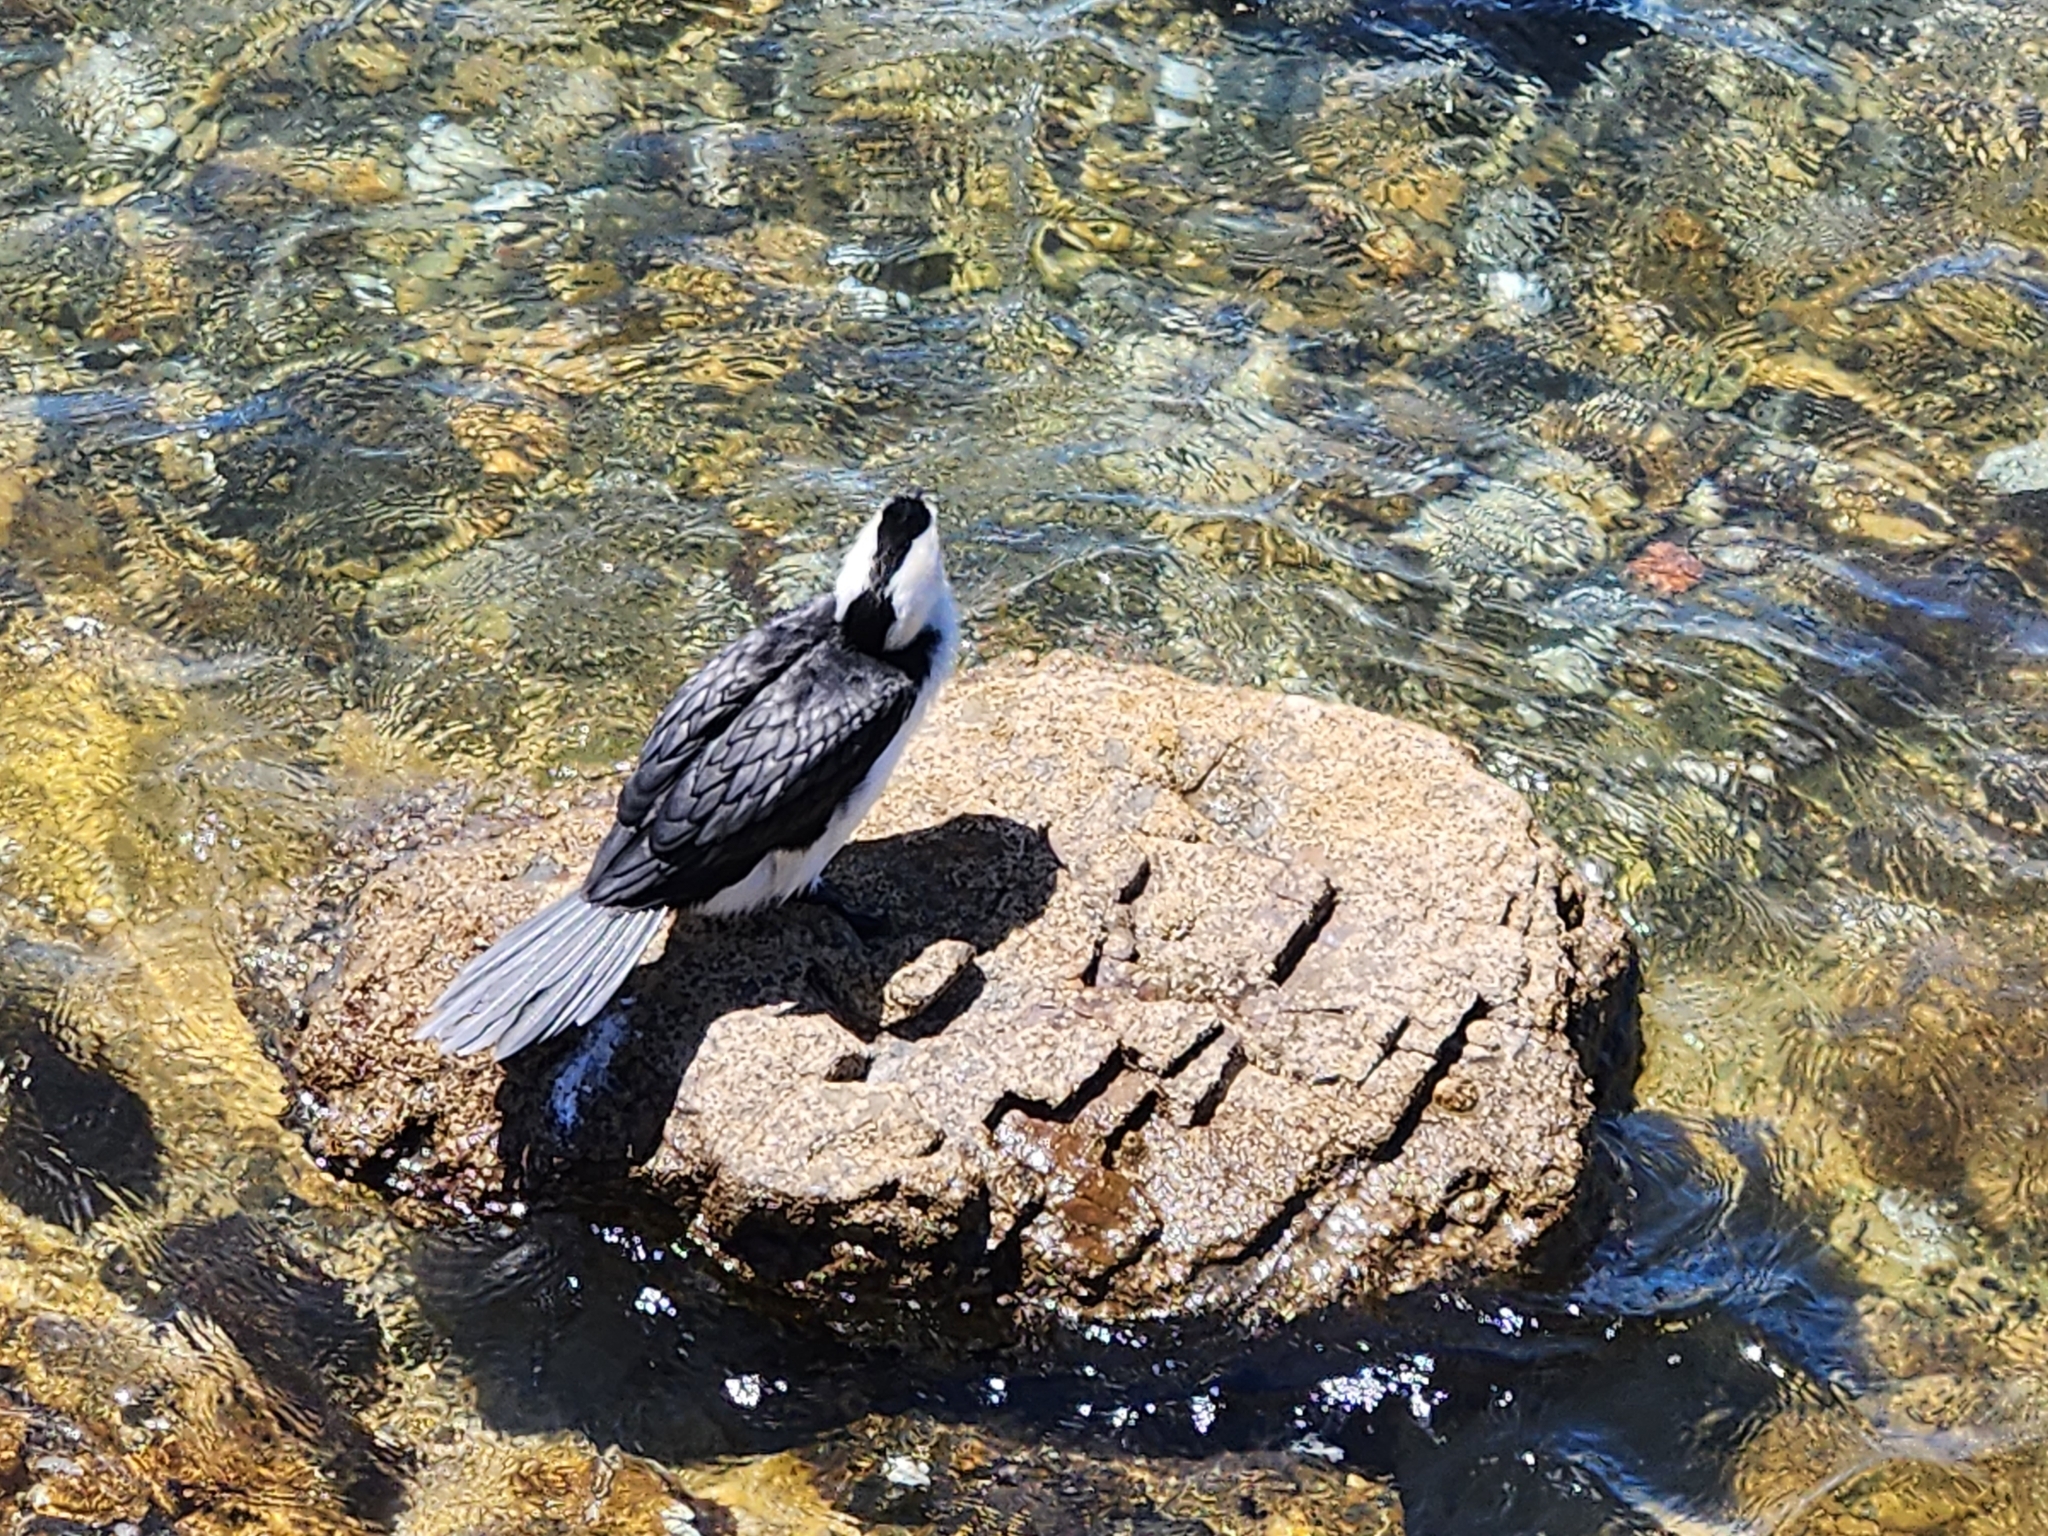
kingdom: Animalia
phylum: Chordata
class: Aves
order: Suliformes
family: Phalacrocoracidae
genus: Microcarbo
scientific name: Microcarbo melanoleucos
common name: Little pied cormorant
